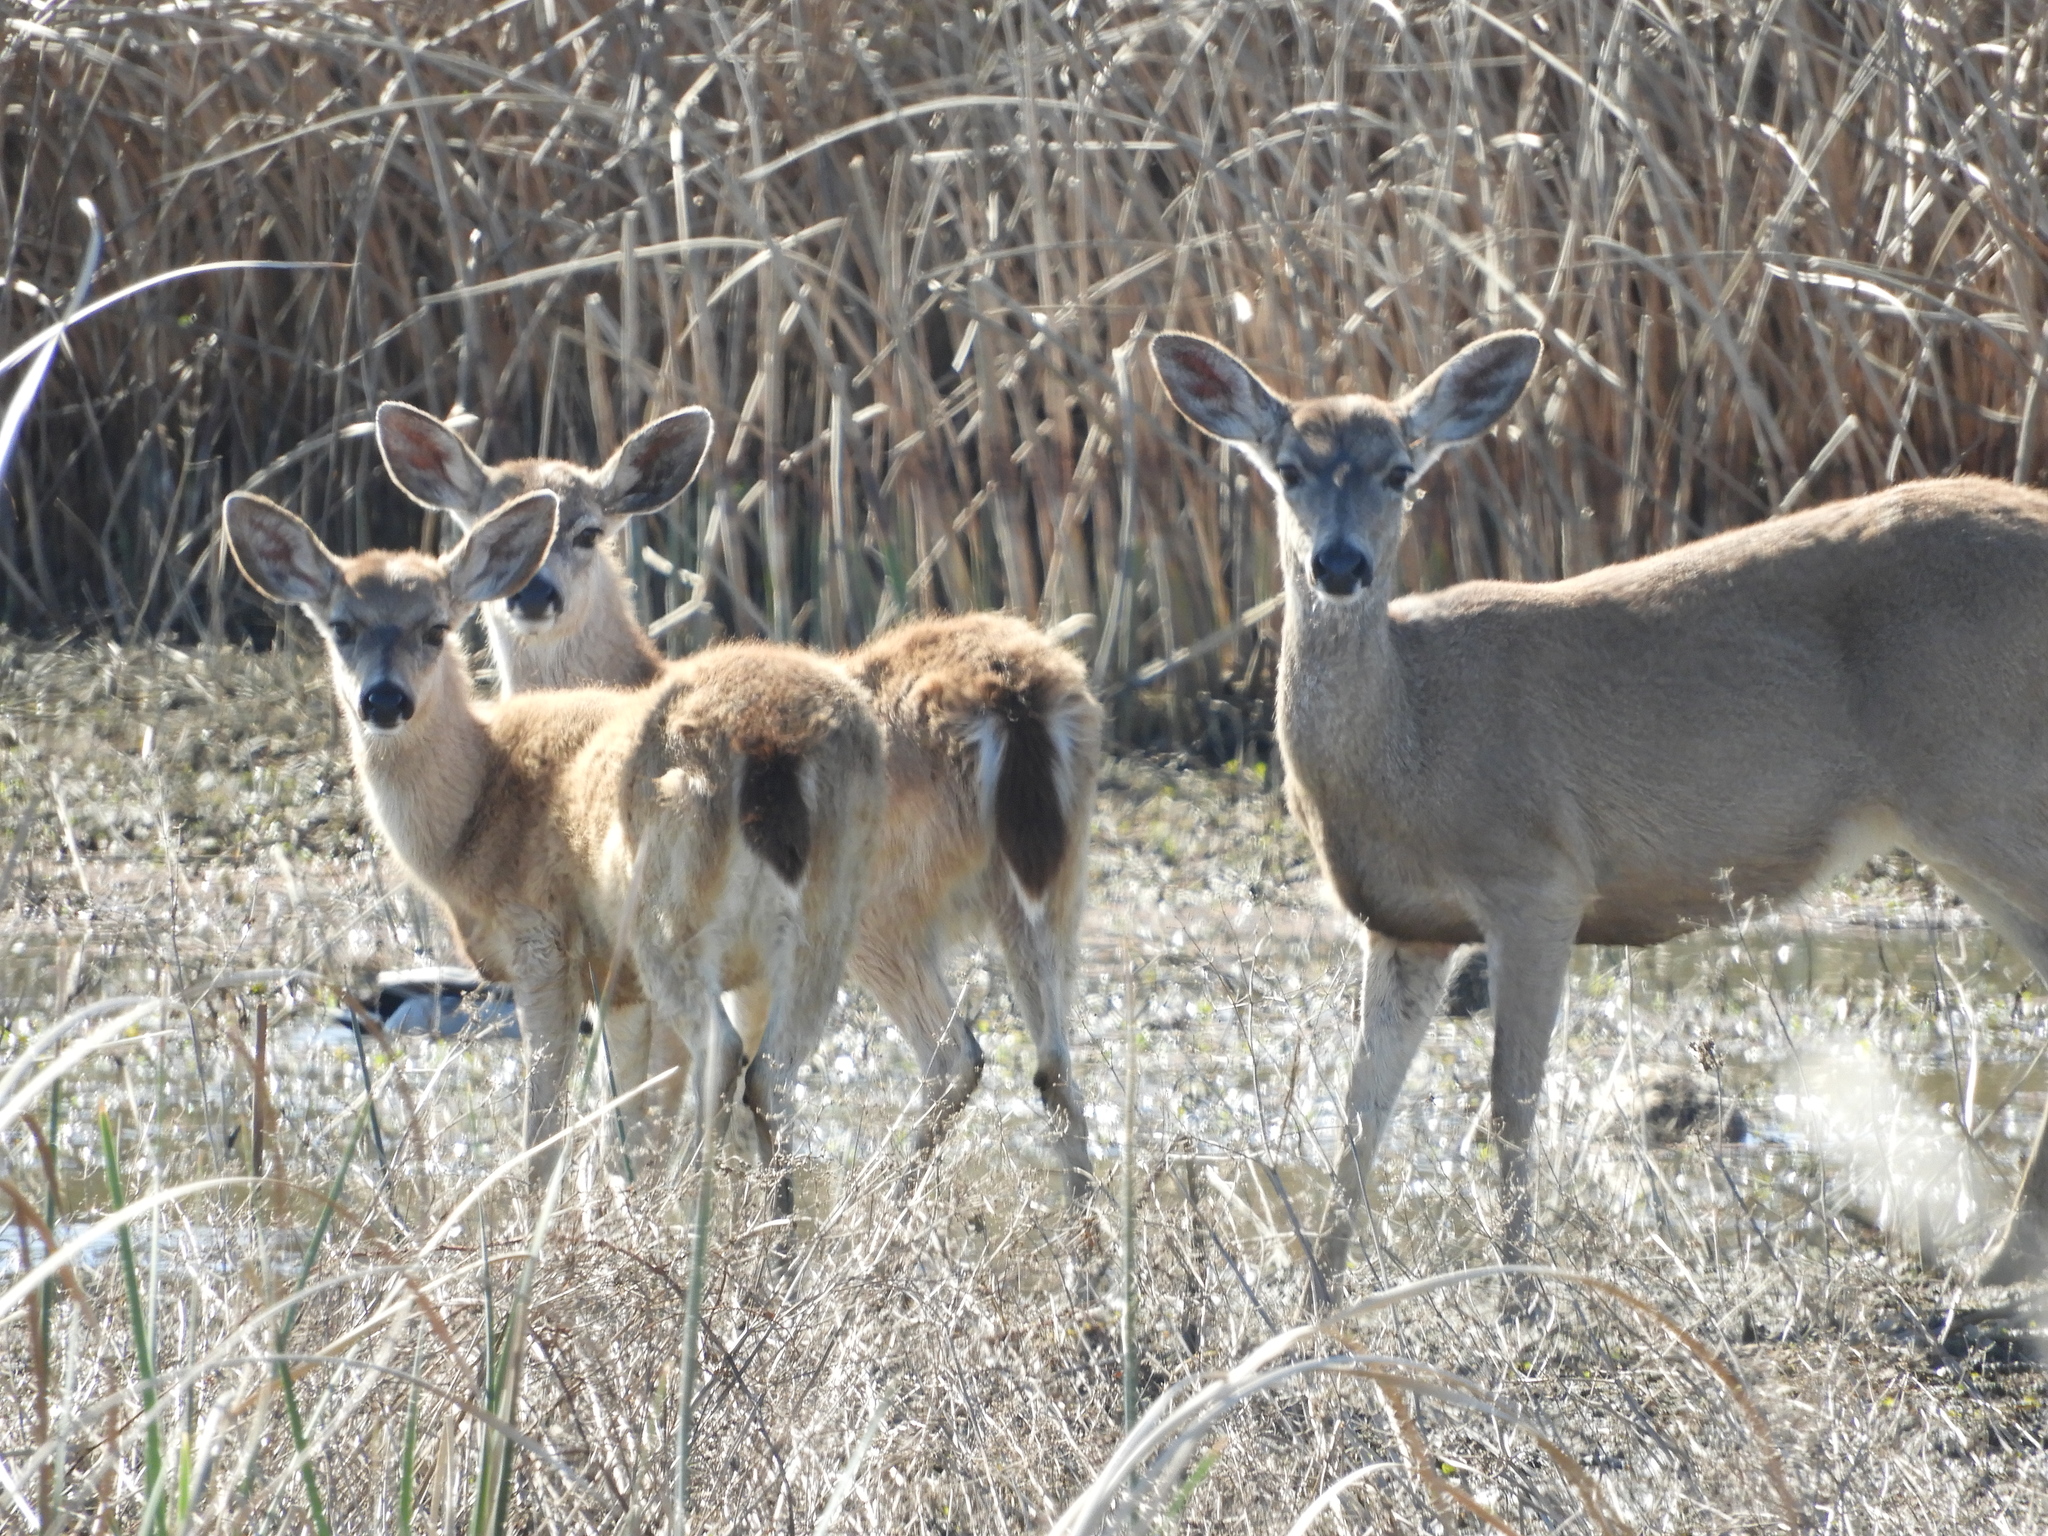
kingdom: Animalia
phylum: Chordata
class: Mammalia
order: Artiodactyla
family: Cervidae
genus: Odocoileus
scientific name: Odocoileus hemionus
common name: Mule deer
